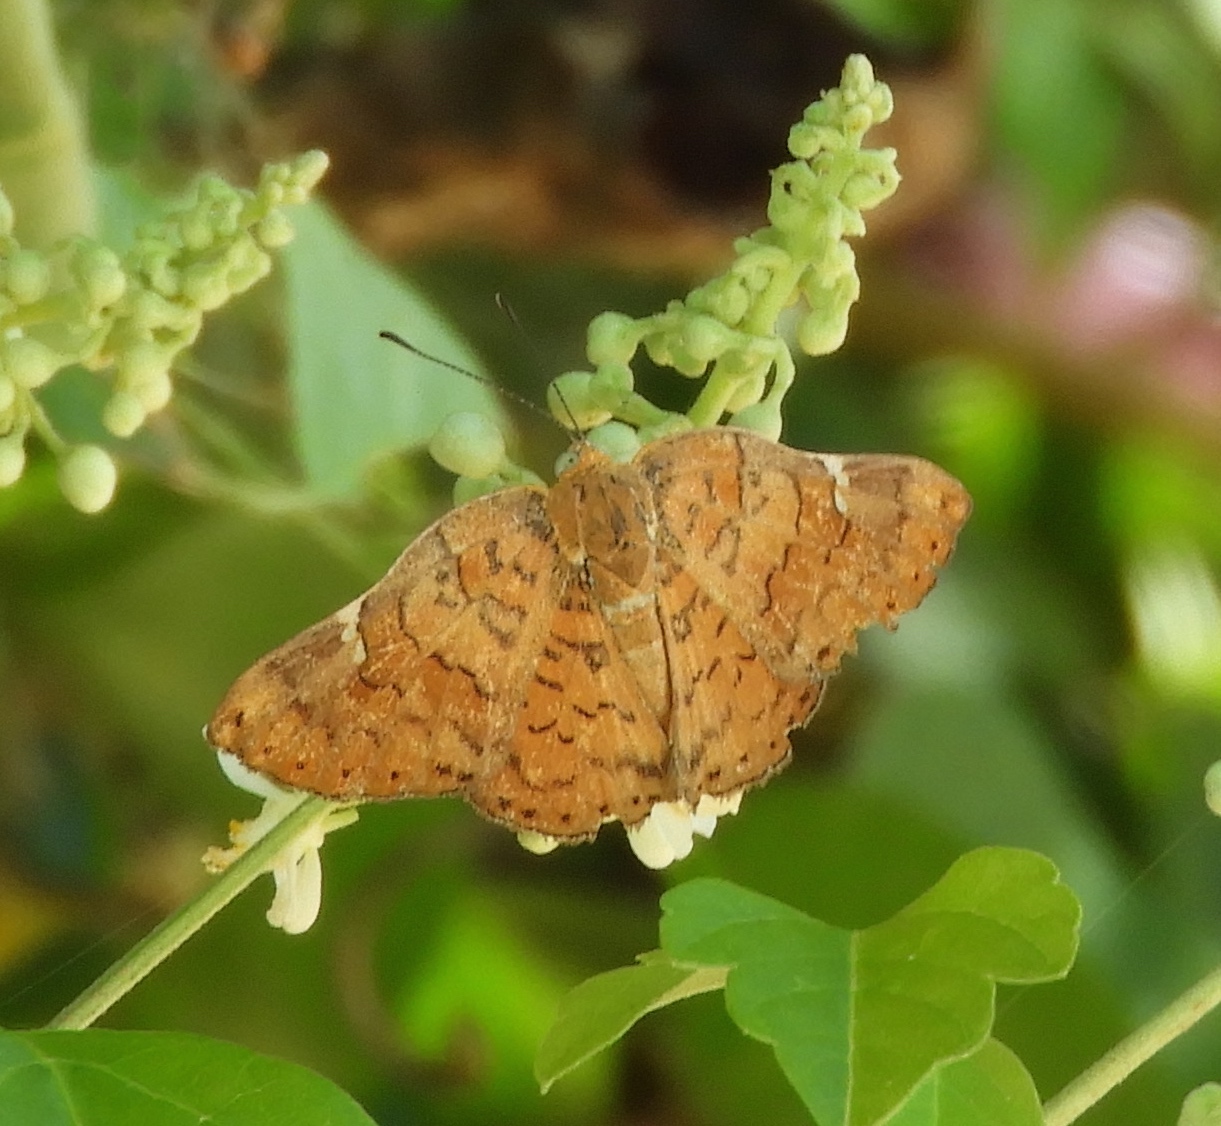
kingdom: Animalia
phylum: Arthropoda
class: Insecta
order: Lepidoptera
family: Riodinidae
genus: Curvie
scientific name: Curvie emesia
